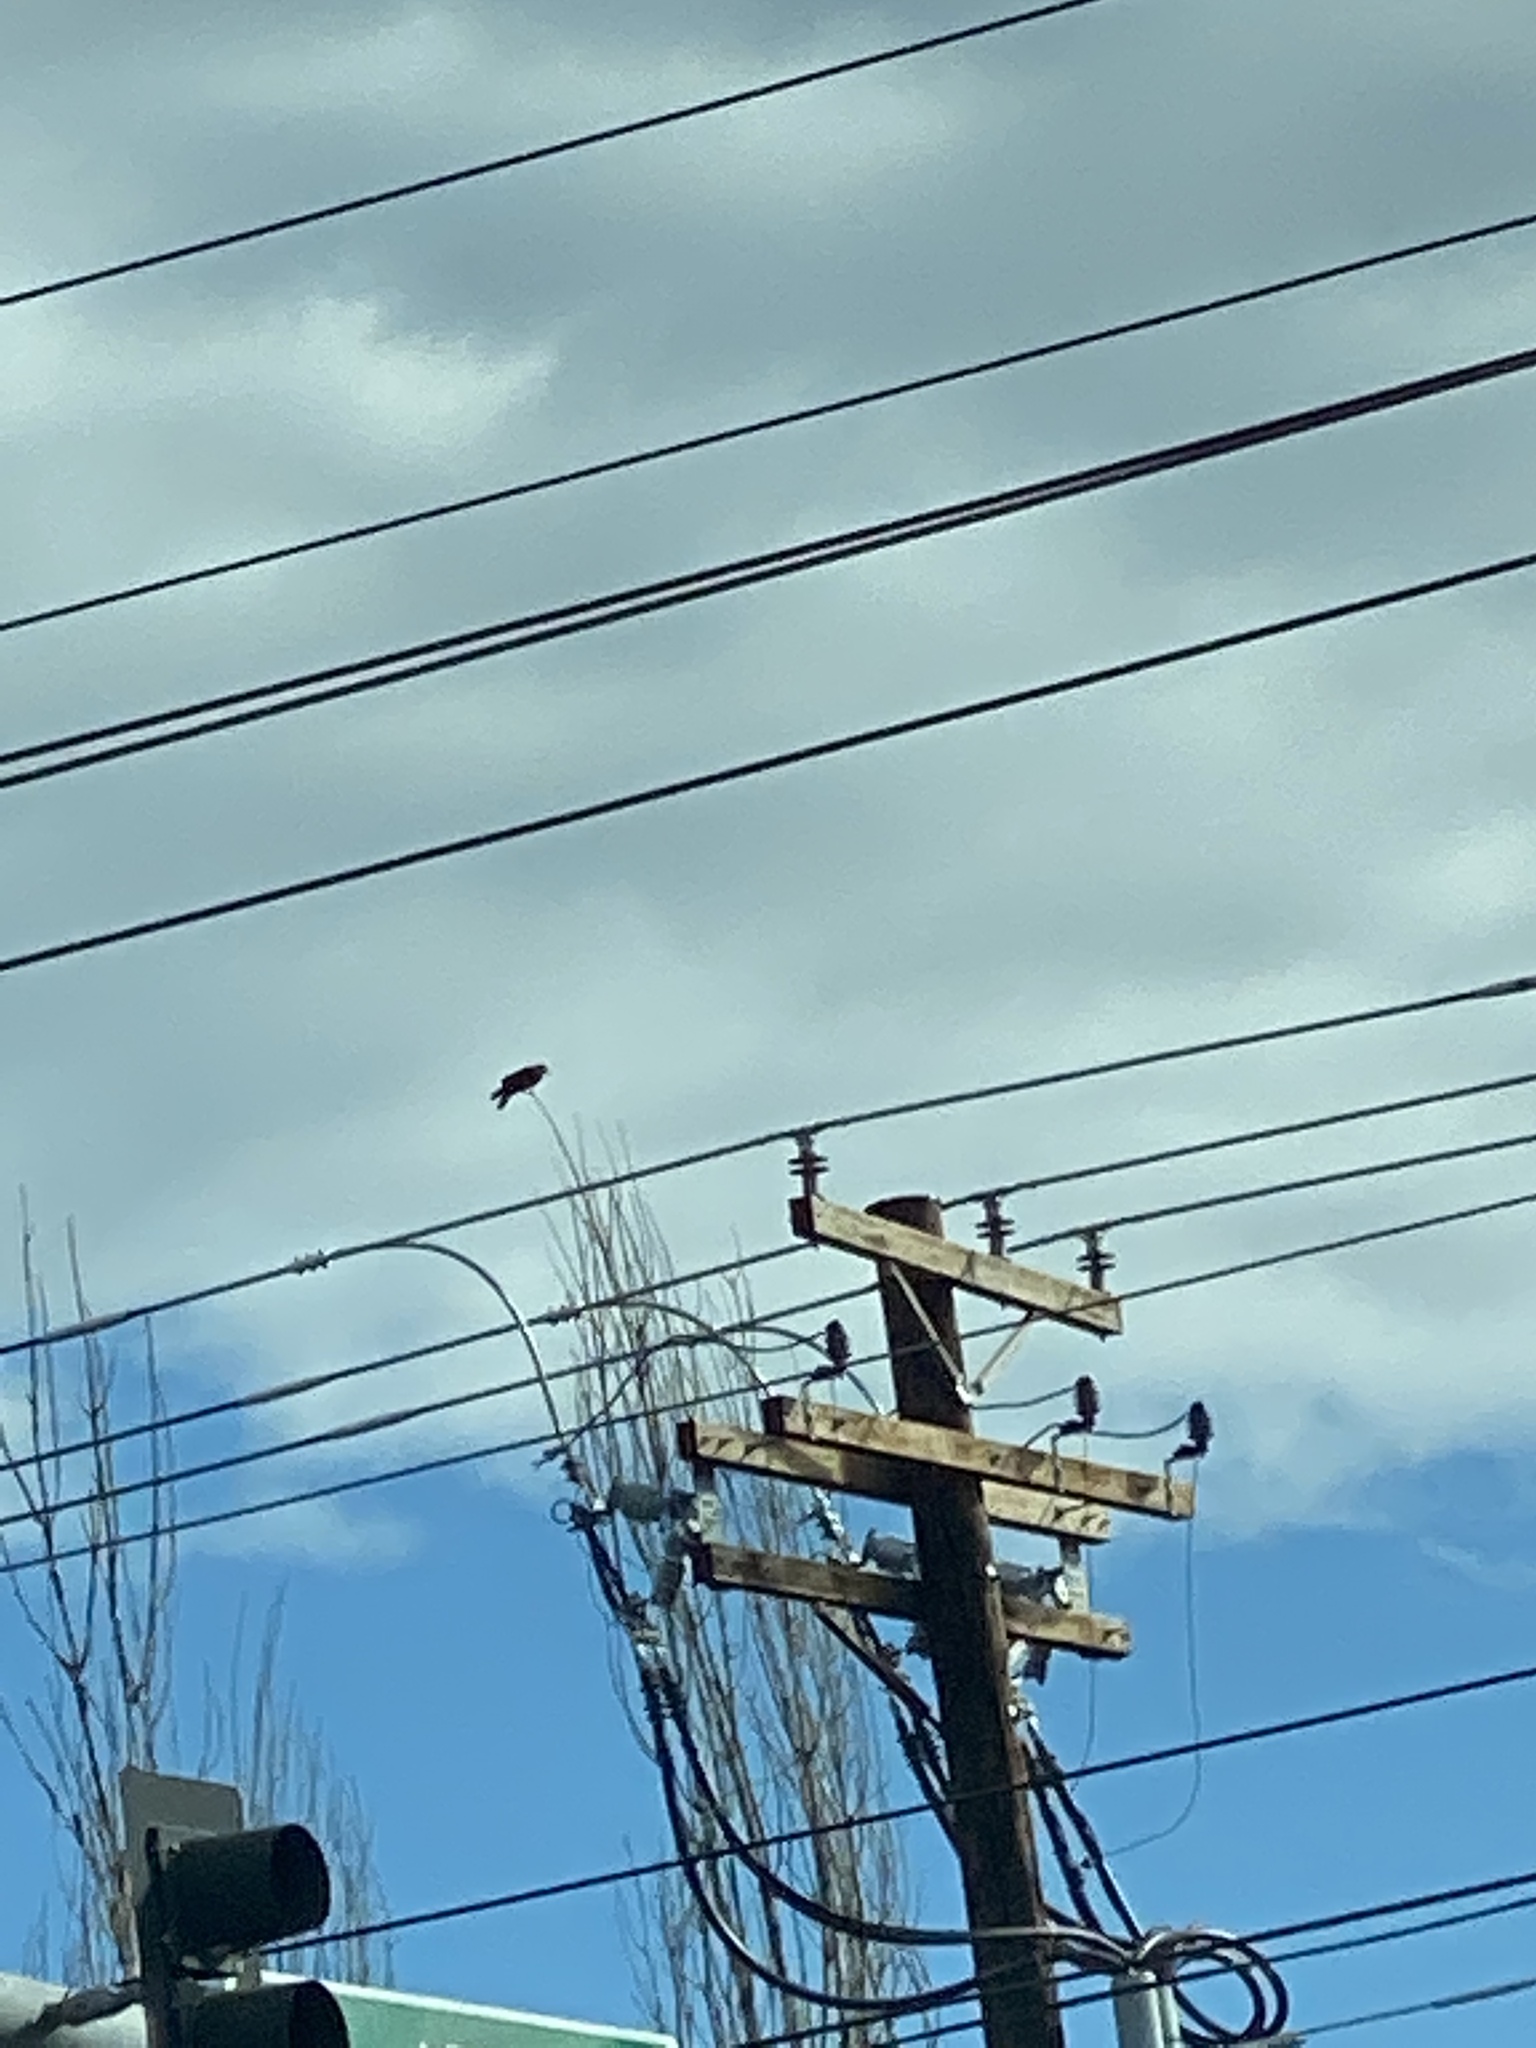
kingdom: Animalia
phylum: Chordata
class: Aves
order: Passeriformes
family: Corvidae
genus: Corvus
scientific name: Corvus brachyrhynchos
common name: American crow
